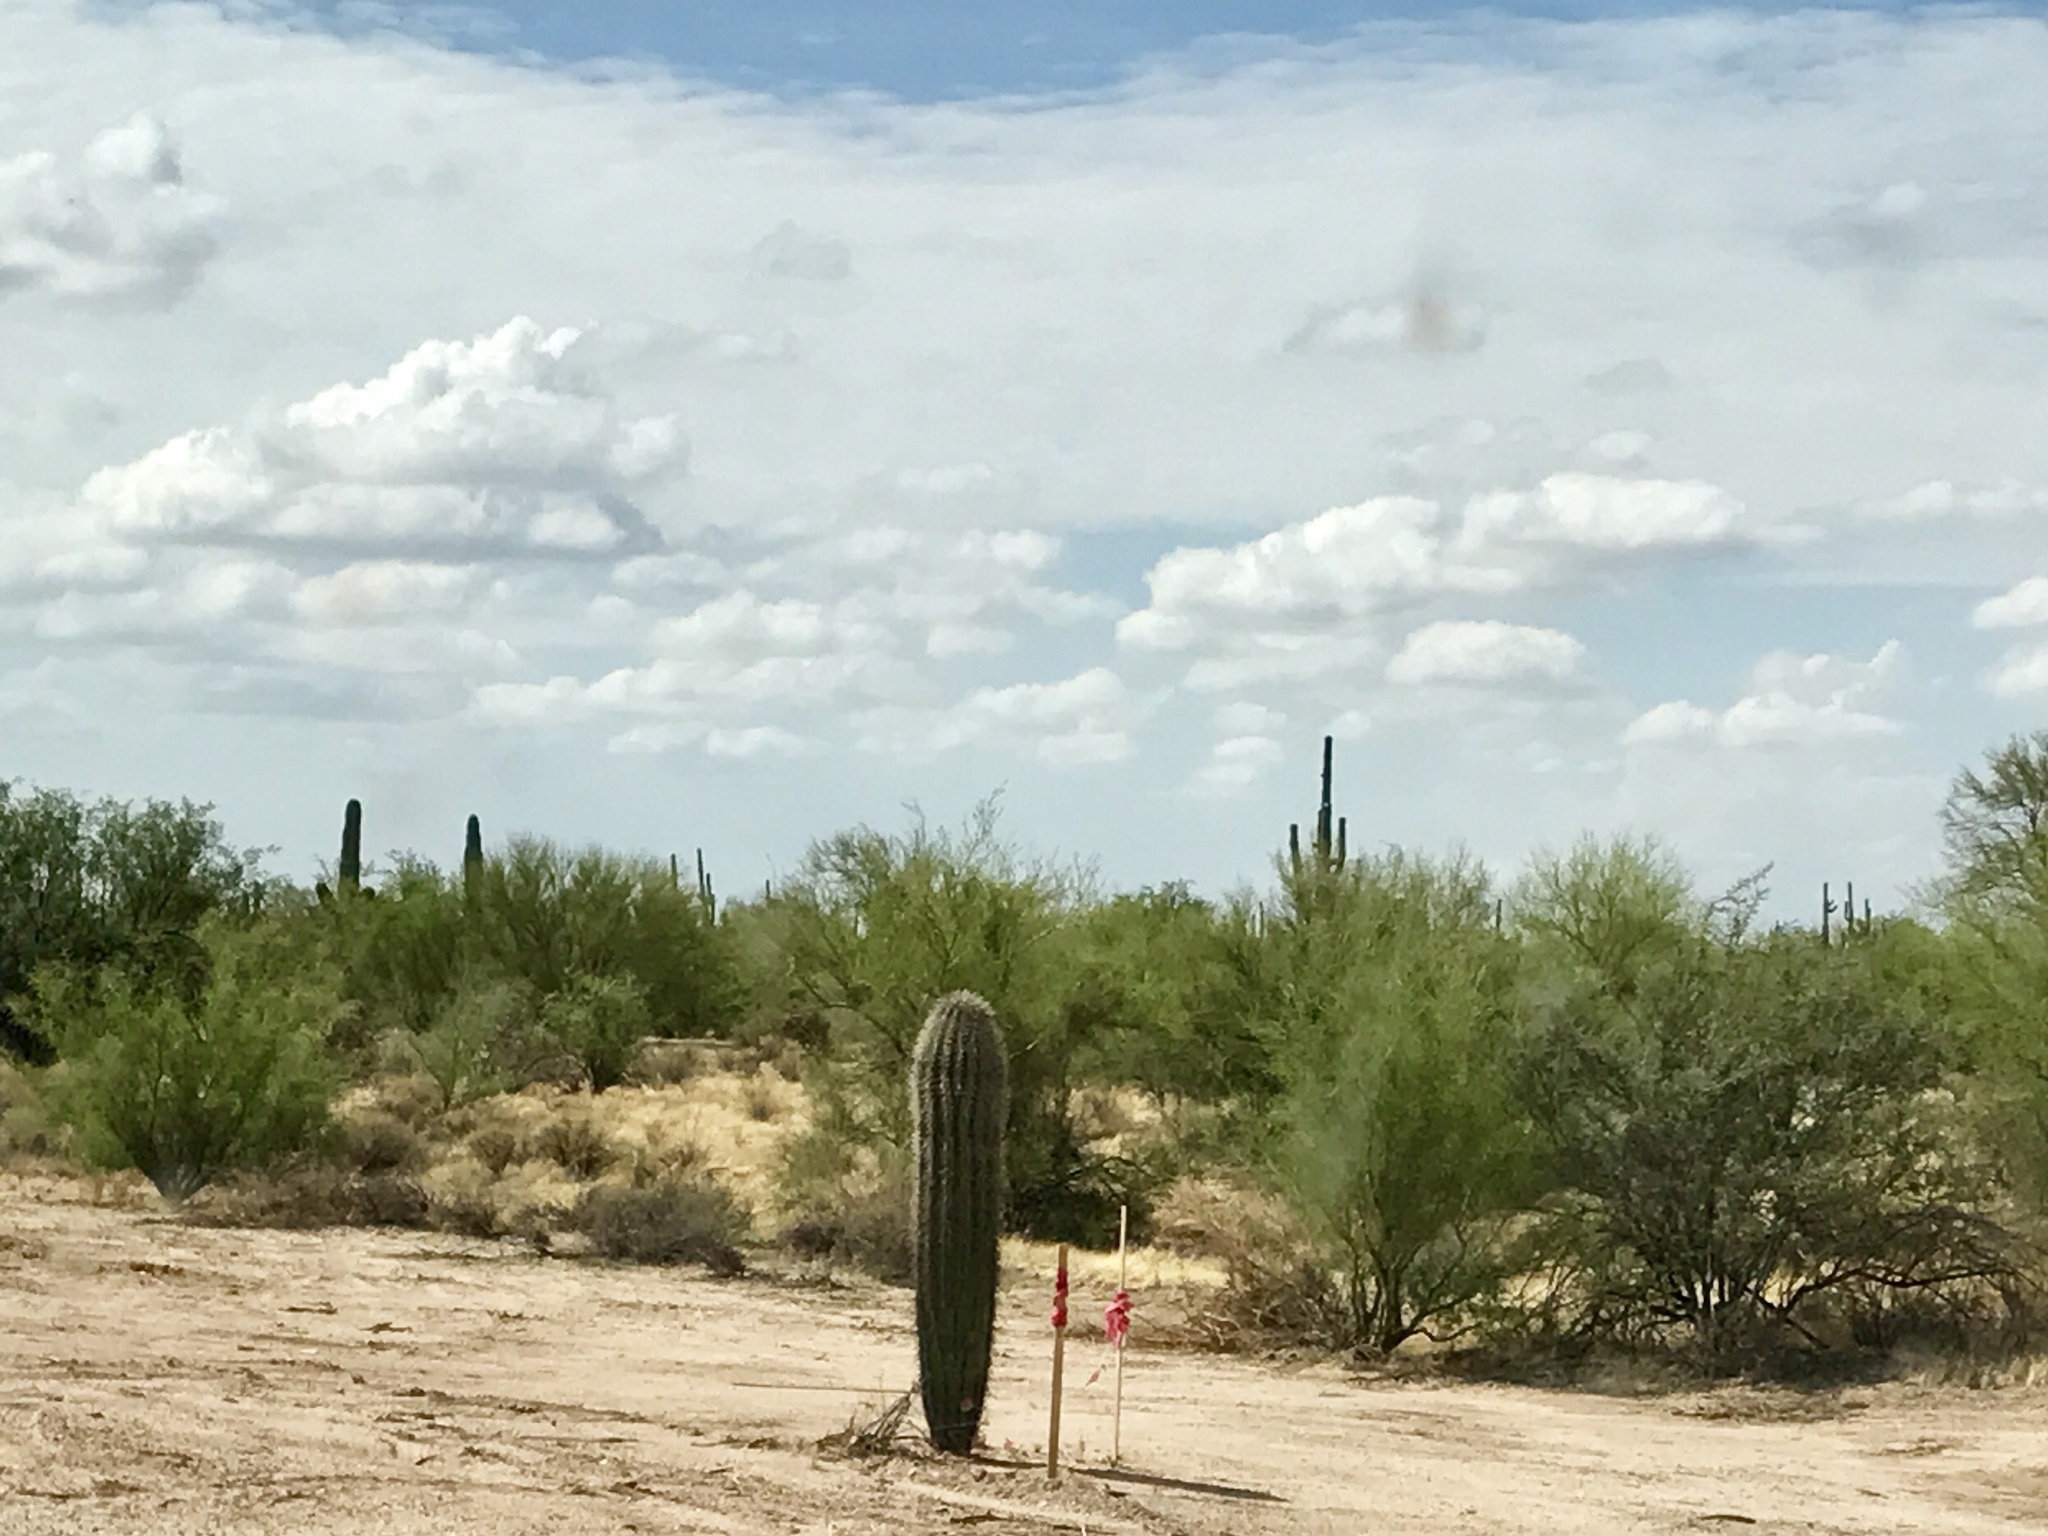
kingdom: Plantae
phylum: Tracheophyta
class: Magnoliopsida
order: Caryophyllales
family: Cactaceae
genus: Carnegiea
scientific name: Carnegiea gigantea
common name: Saguaro
